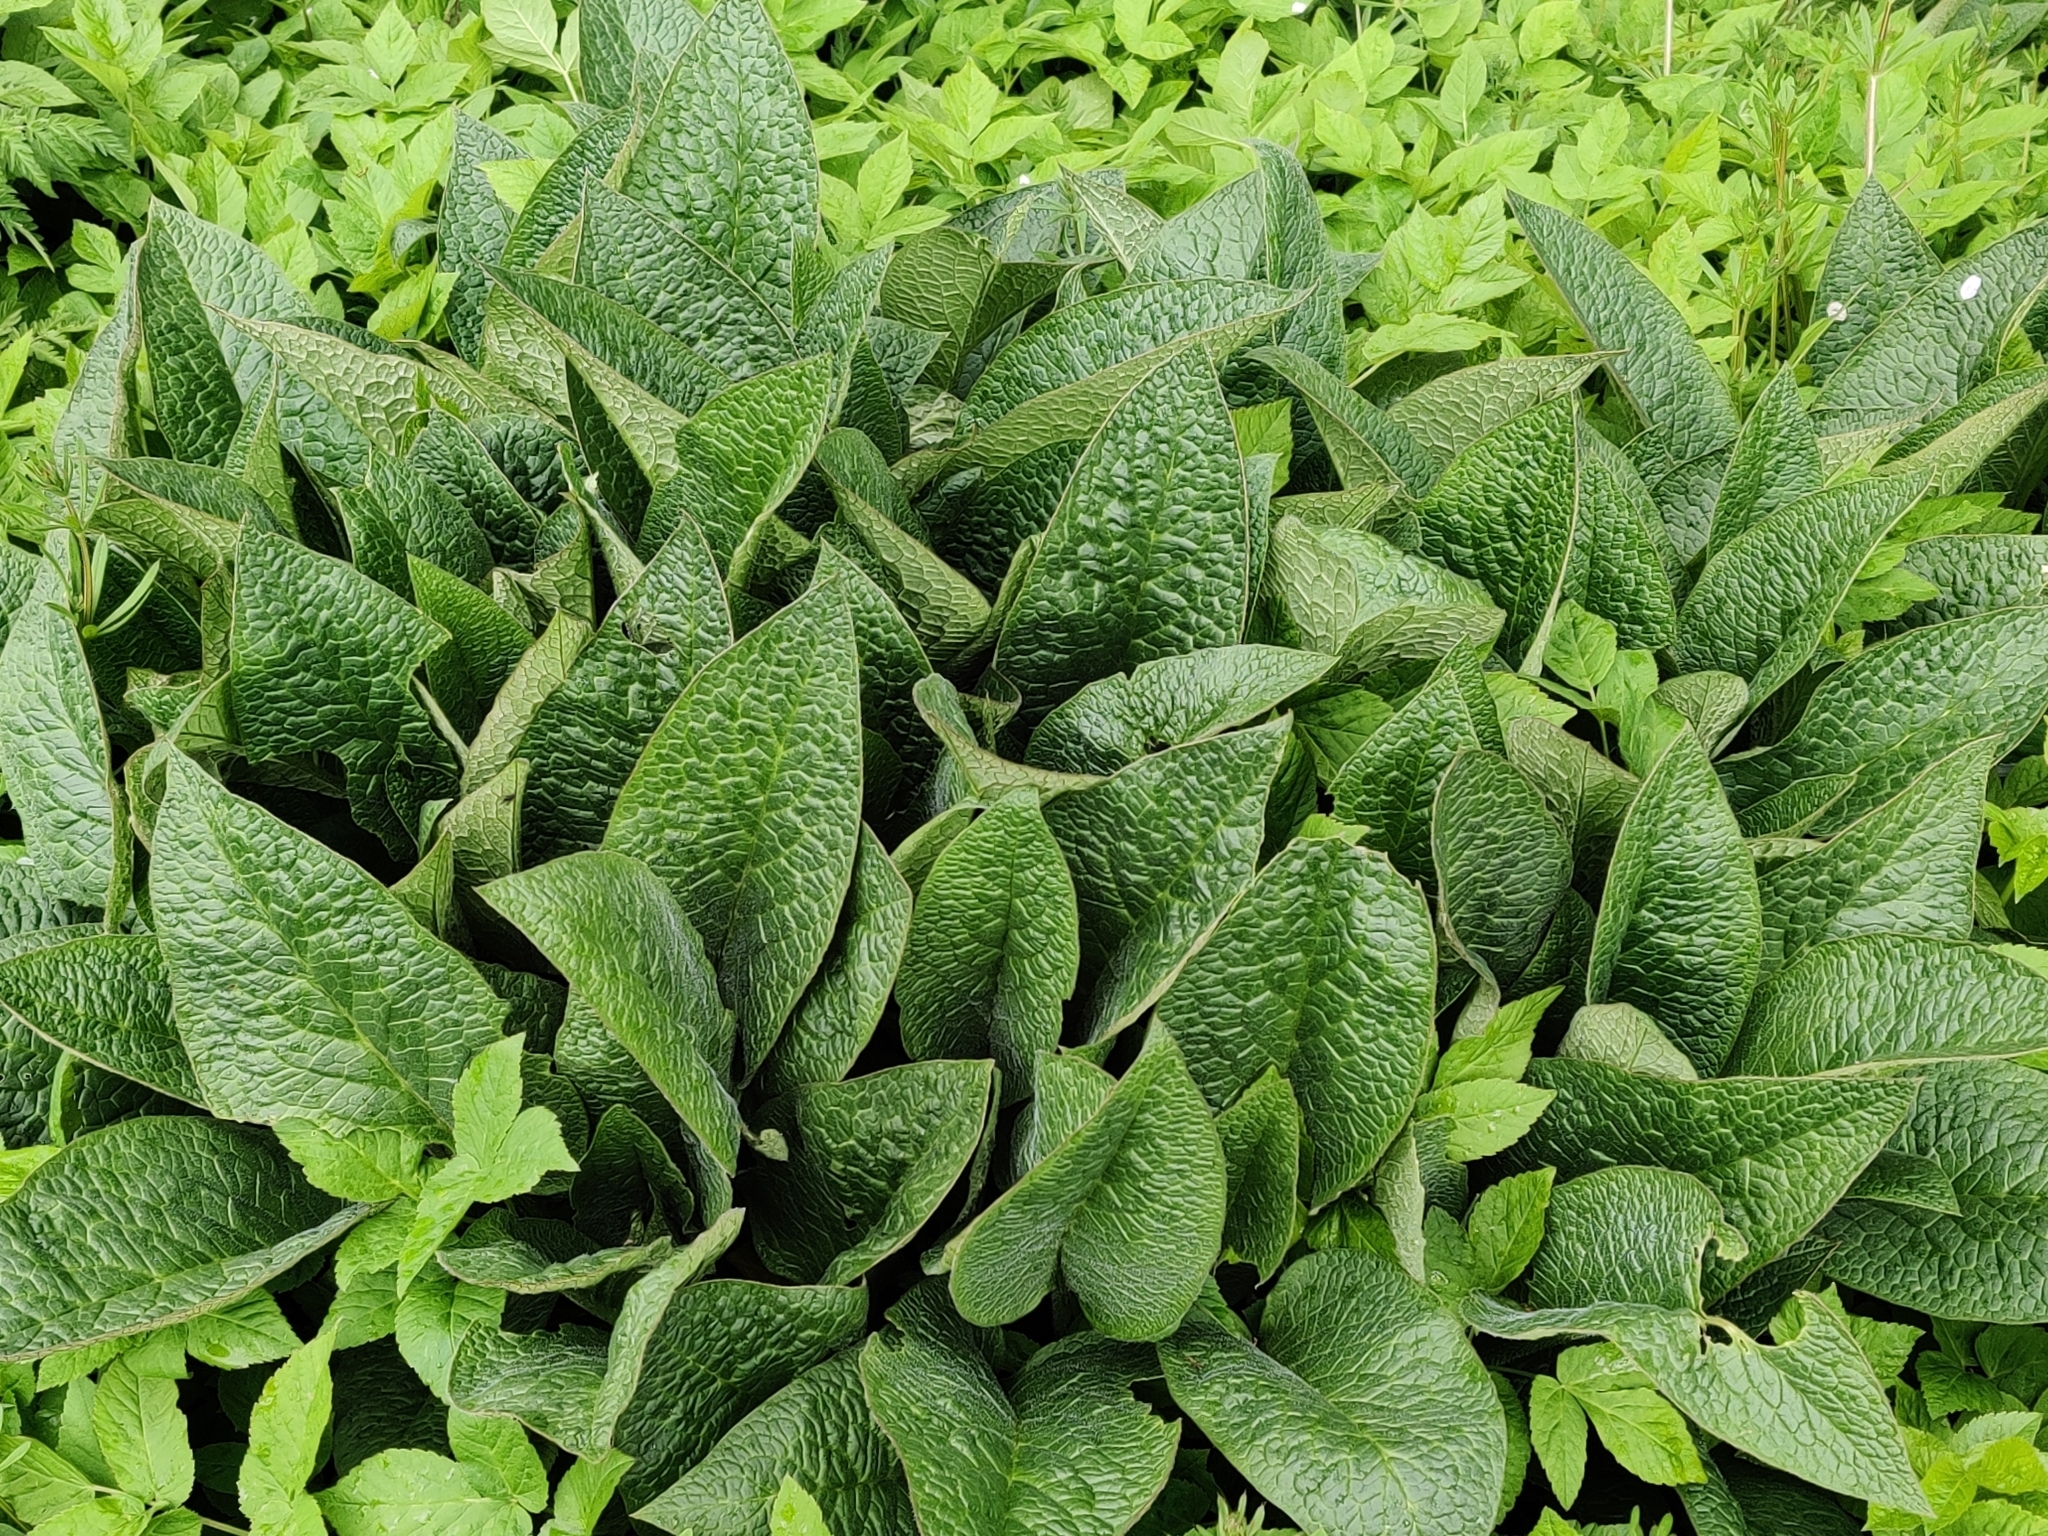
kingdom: Plantae
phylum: Tracheophyta
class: Magnoliopsida
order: Boraginales
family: Boraginaceae
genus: Symphytum
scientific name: Symphytum officinale
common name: Common comfrey
